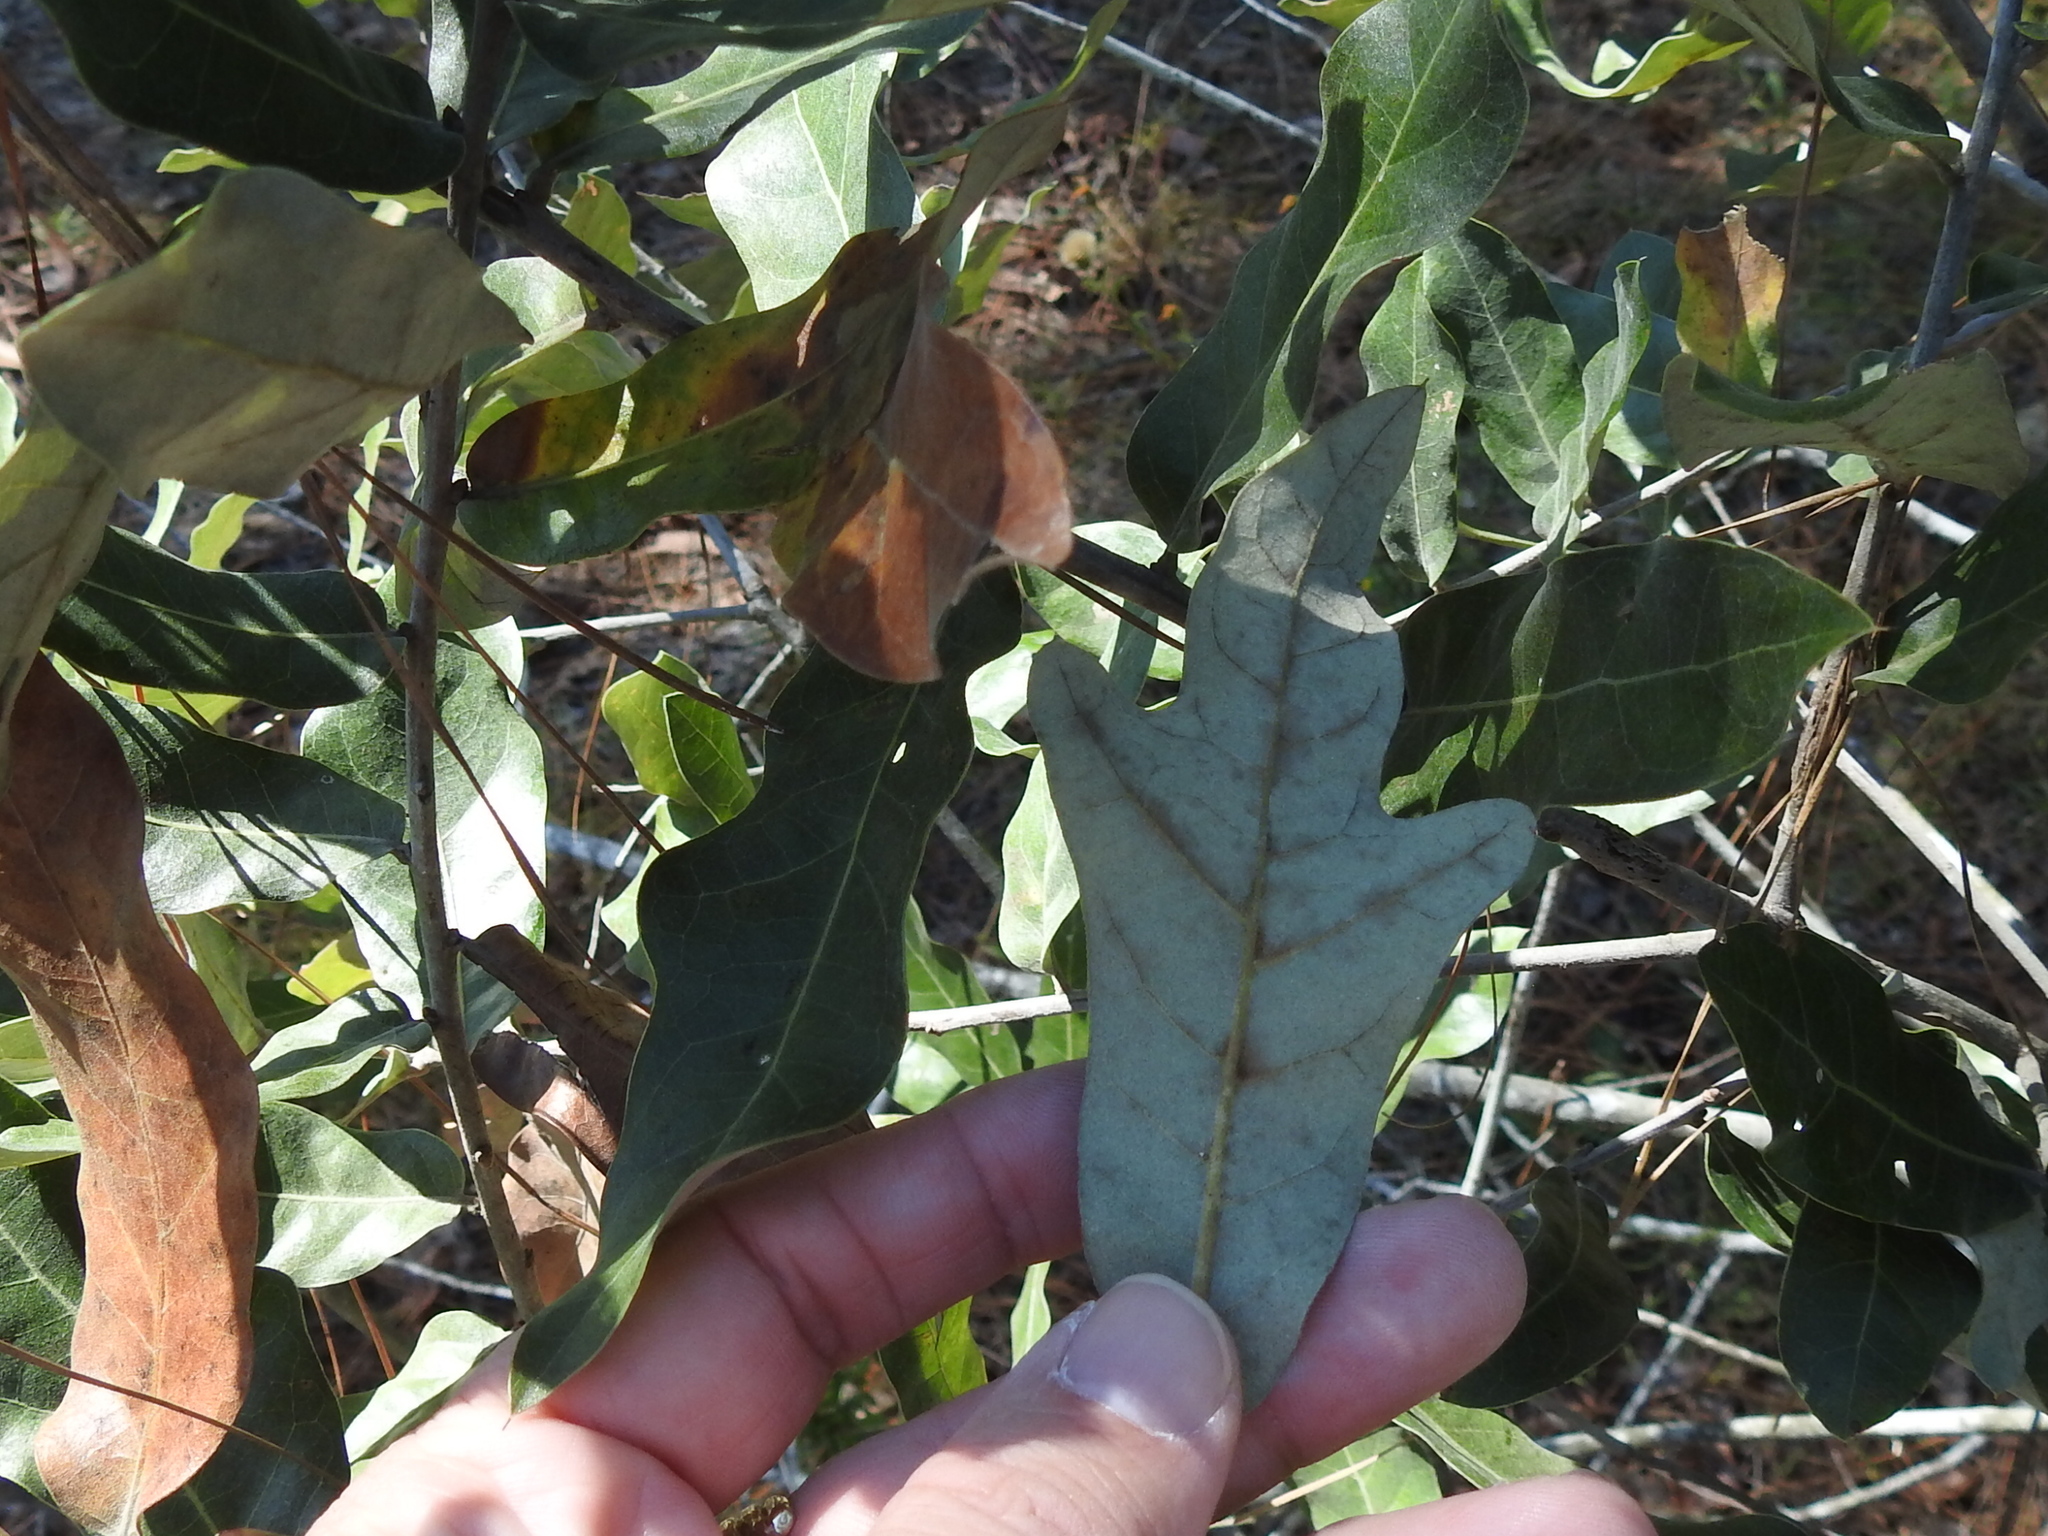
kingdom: Plantae
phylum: Tracheophyta
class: Magnoliopsida
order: Fagales
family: Fagaceae
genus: Quercus
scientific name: Quercus incana
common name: Bluejack oak
